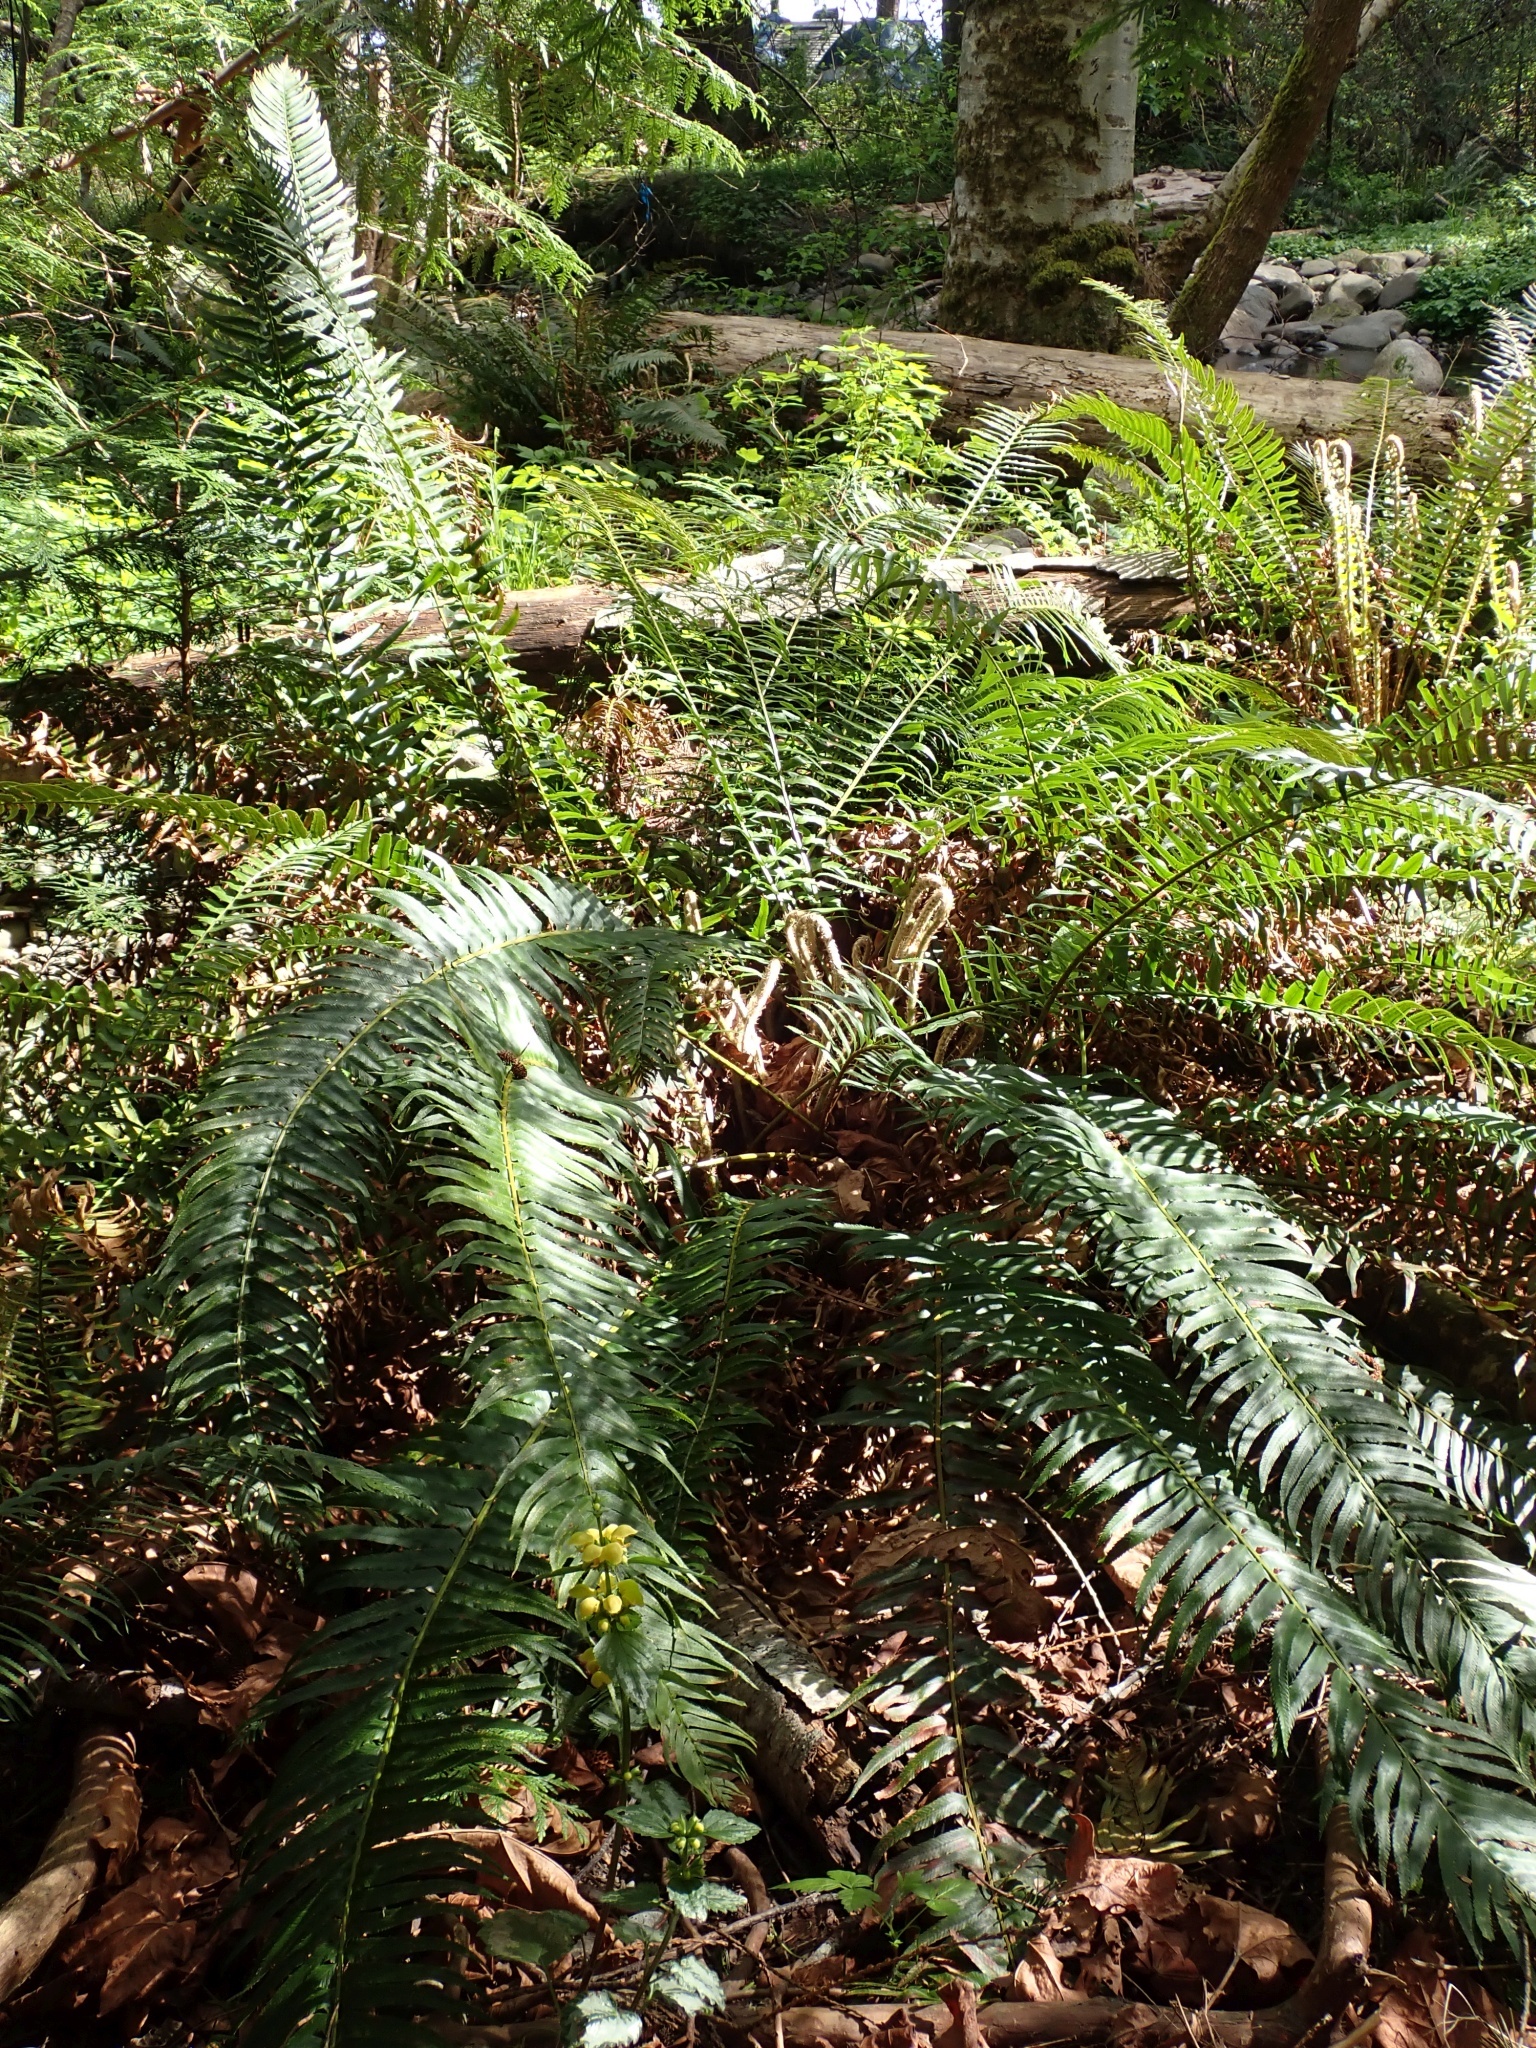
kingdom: Plantae
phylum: Tracheophyta
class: Polypodiopsida
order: Polypodiales
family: Dryopteridaceae
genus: Polystichum
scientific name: Polystichum munitum
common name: Western sword-fern
